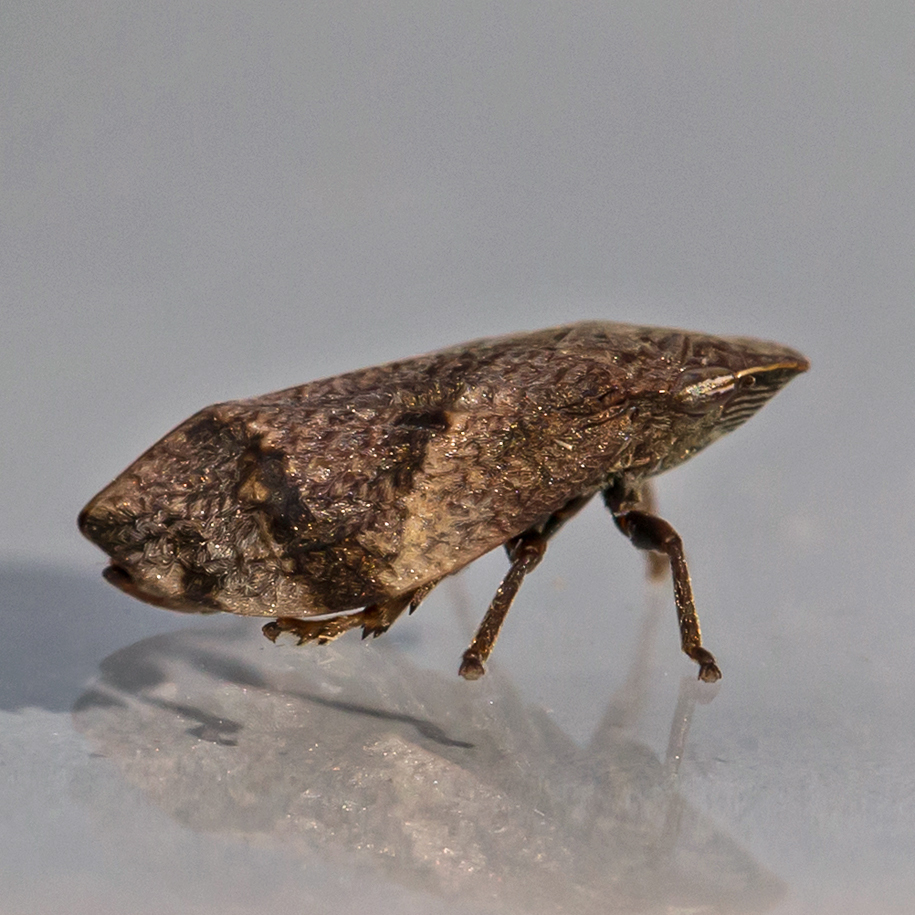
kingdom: Animalia
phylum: Arthropoda
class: Insecta
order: Hemiptera
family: Aphrophoridae
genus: Lepyronia
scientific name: Lepyronia quadrangularis
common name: Diamond-backed spittlebug
